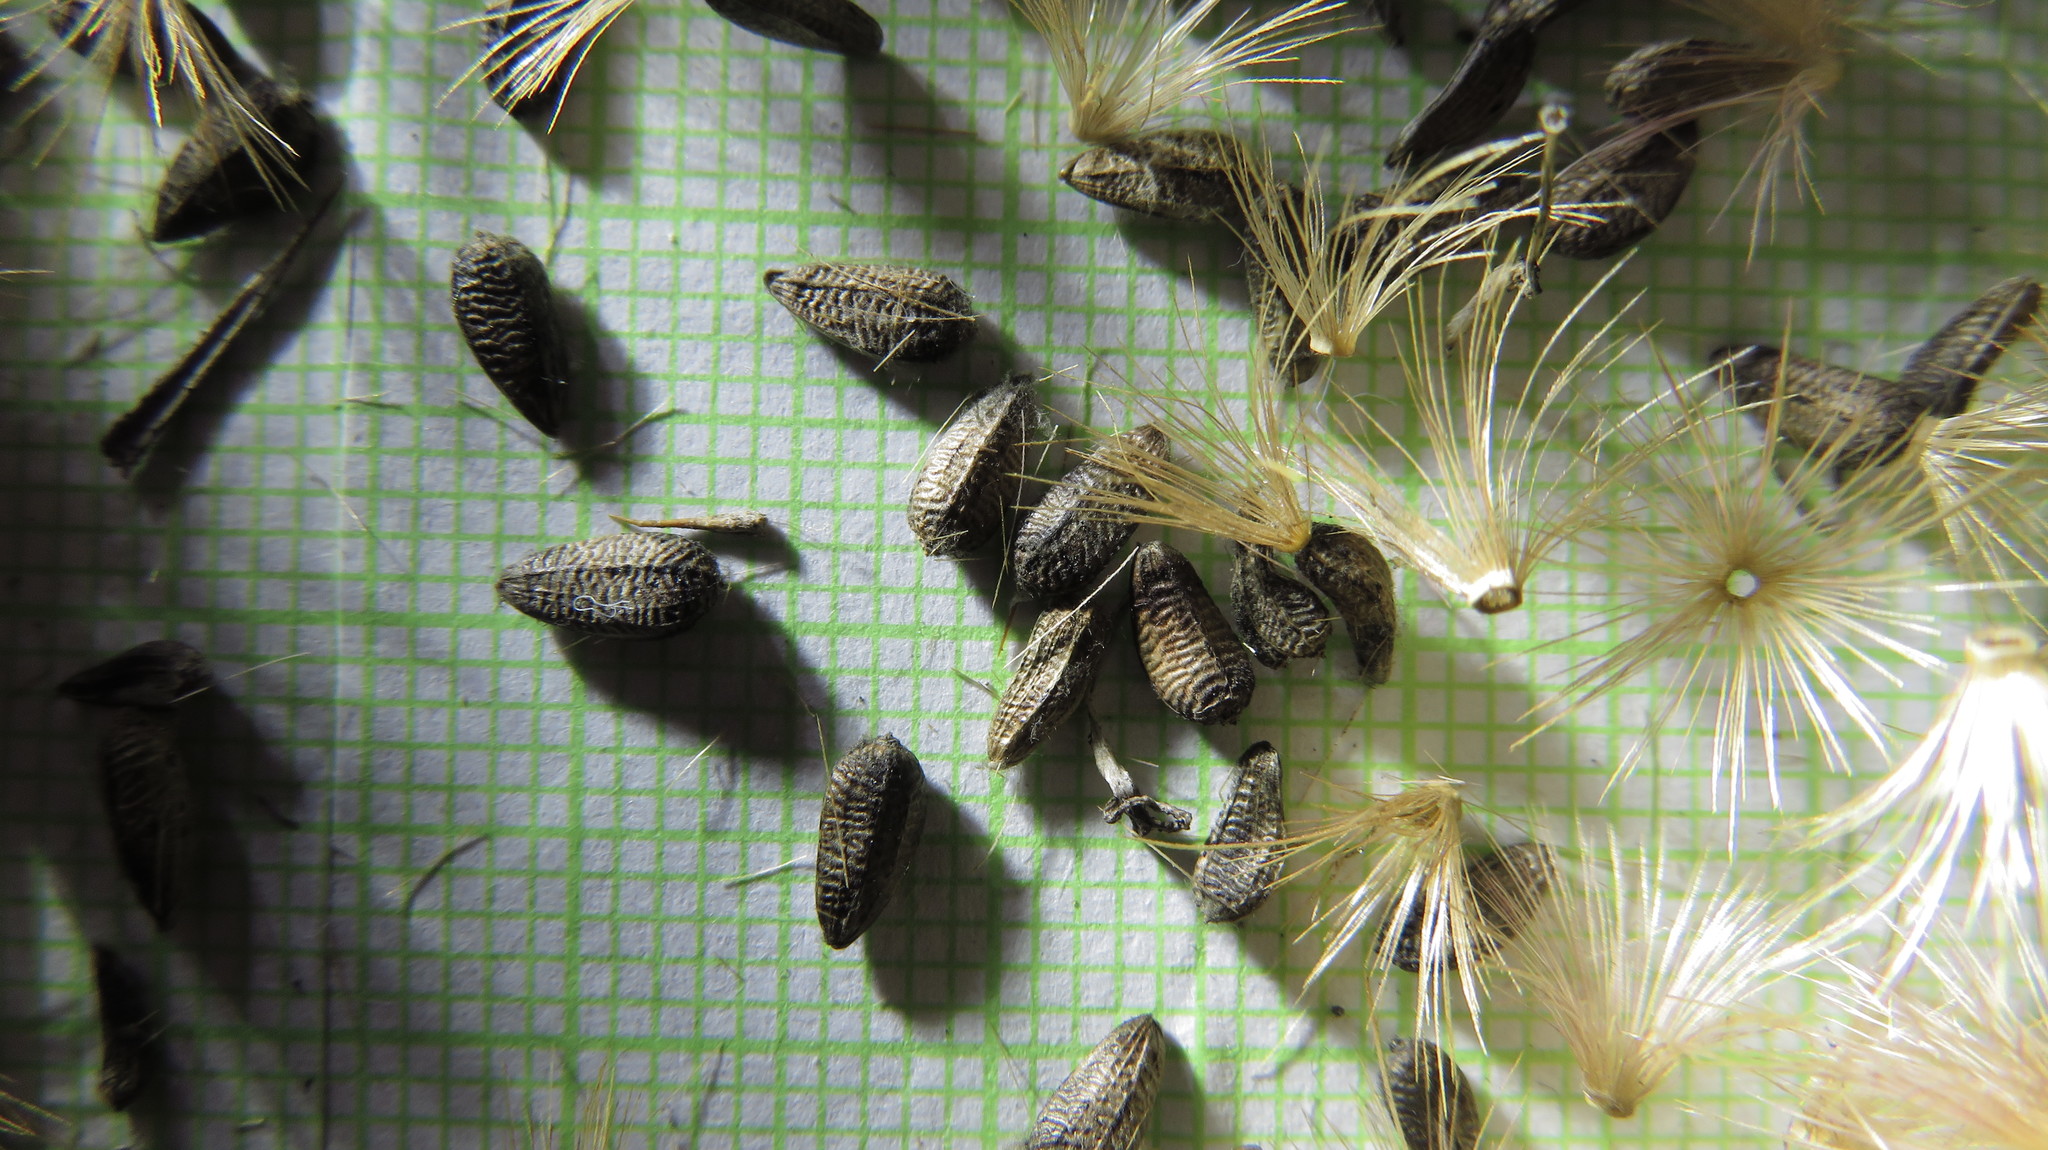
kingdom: Plantae
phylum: Tracheophyta
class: Magnoliopsida
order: Asterales
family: Asteraceae
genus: Onopordum
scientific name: Onopordum acanthium
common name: Scotch thistle
